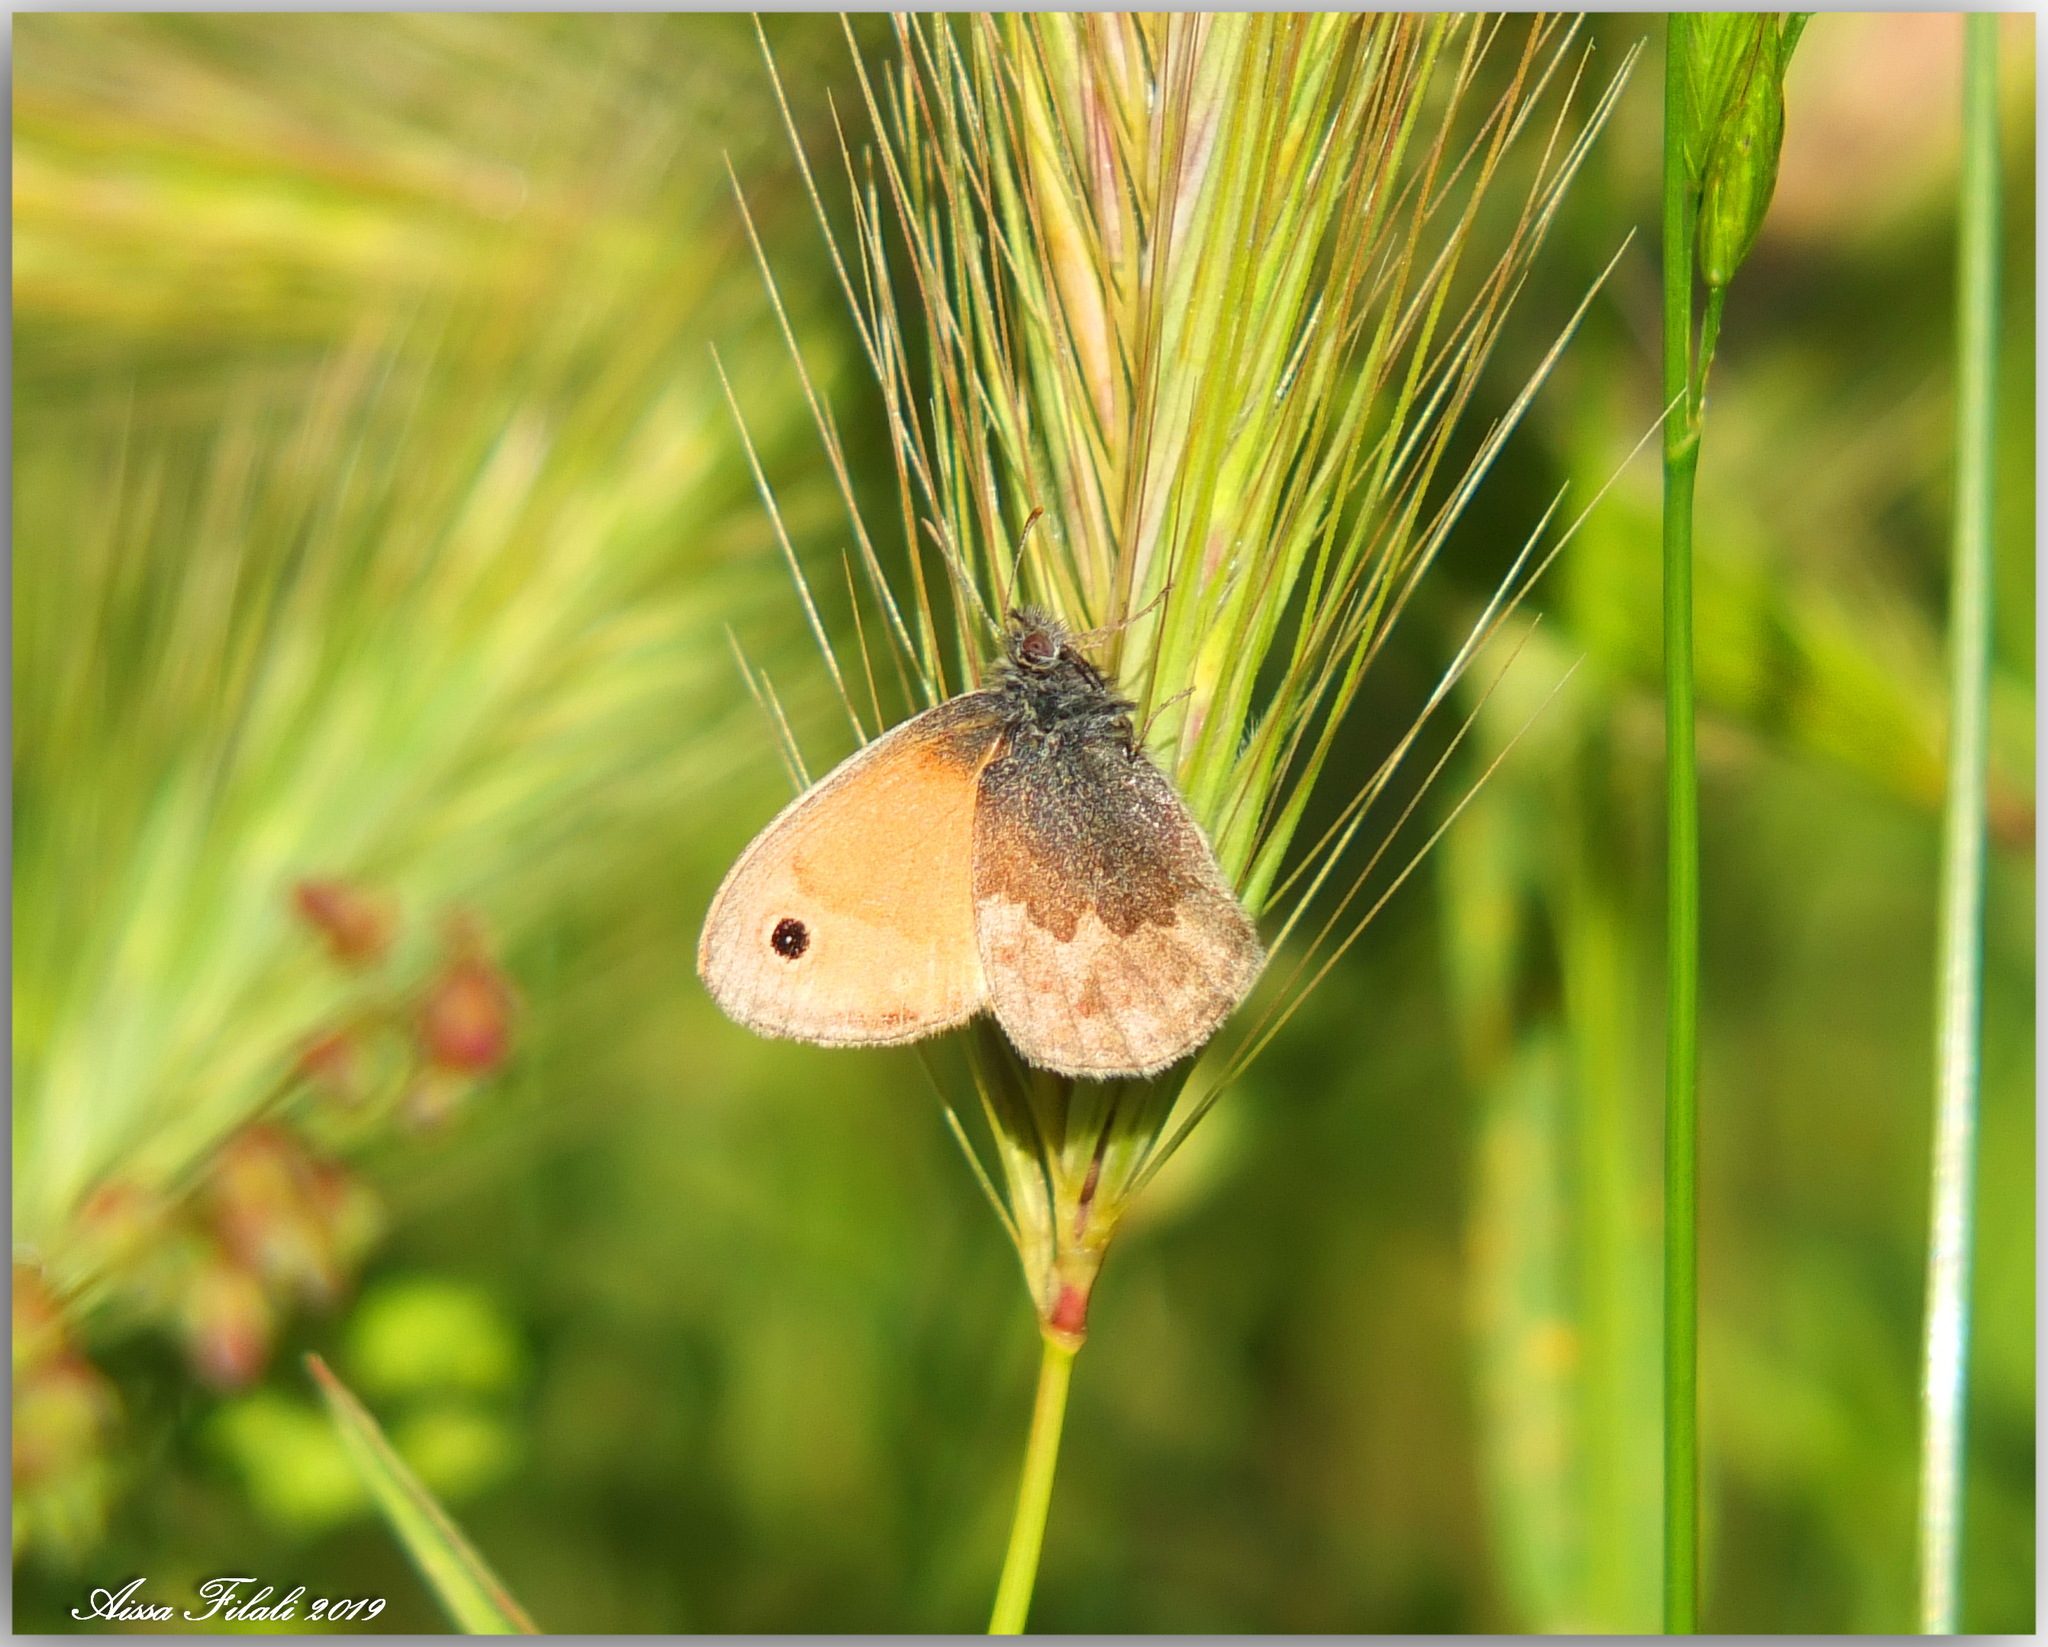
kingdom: Animalia
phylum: Arthropoda
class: Insecta
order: Lepidoptera
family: Nymphalidae
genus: Coenonympha
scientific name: Coenonympha pamphilus
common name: Small heath
